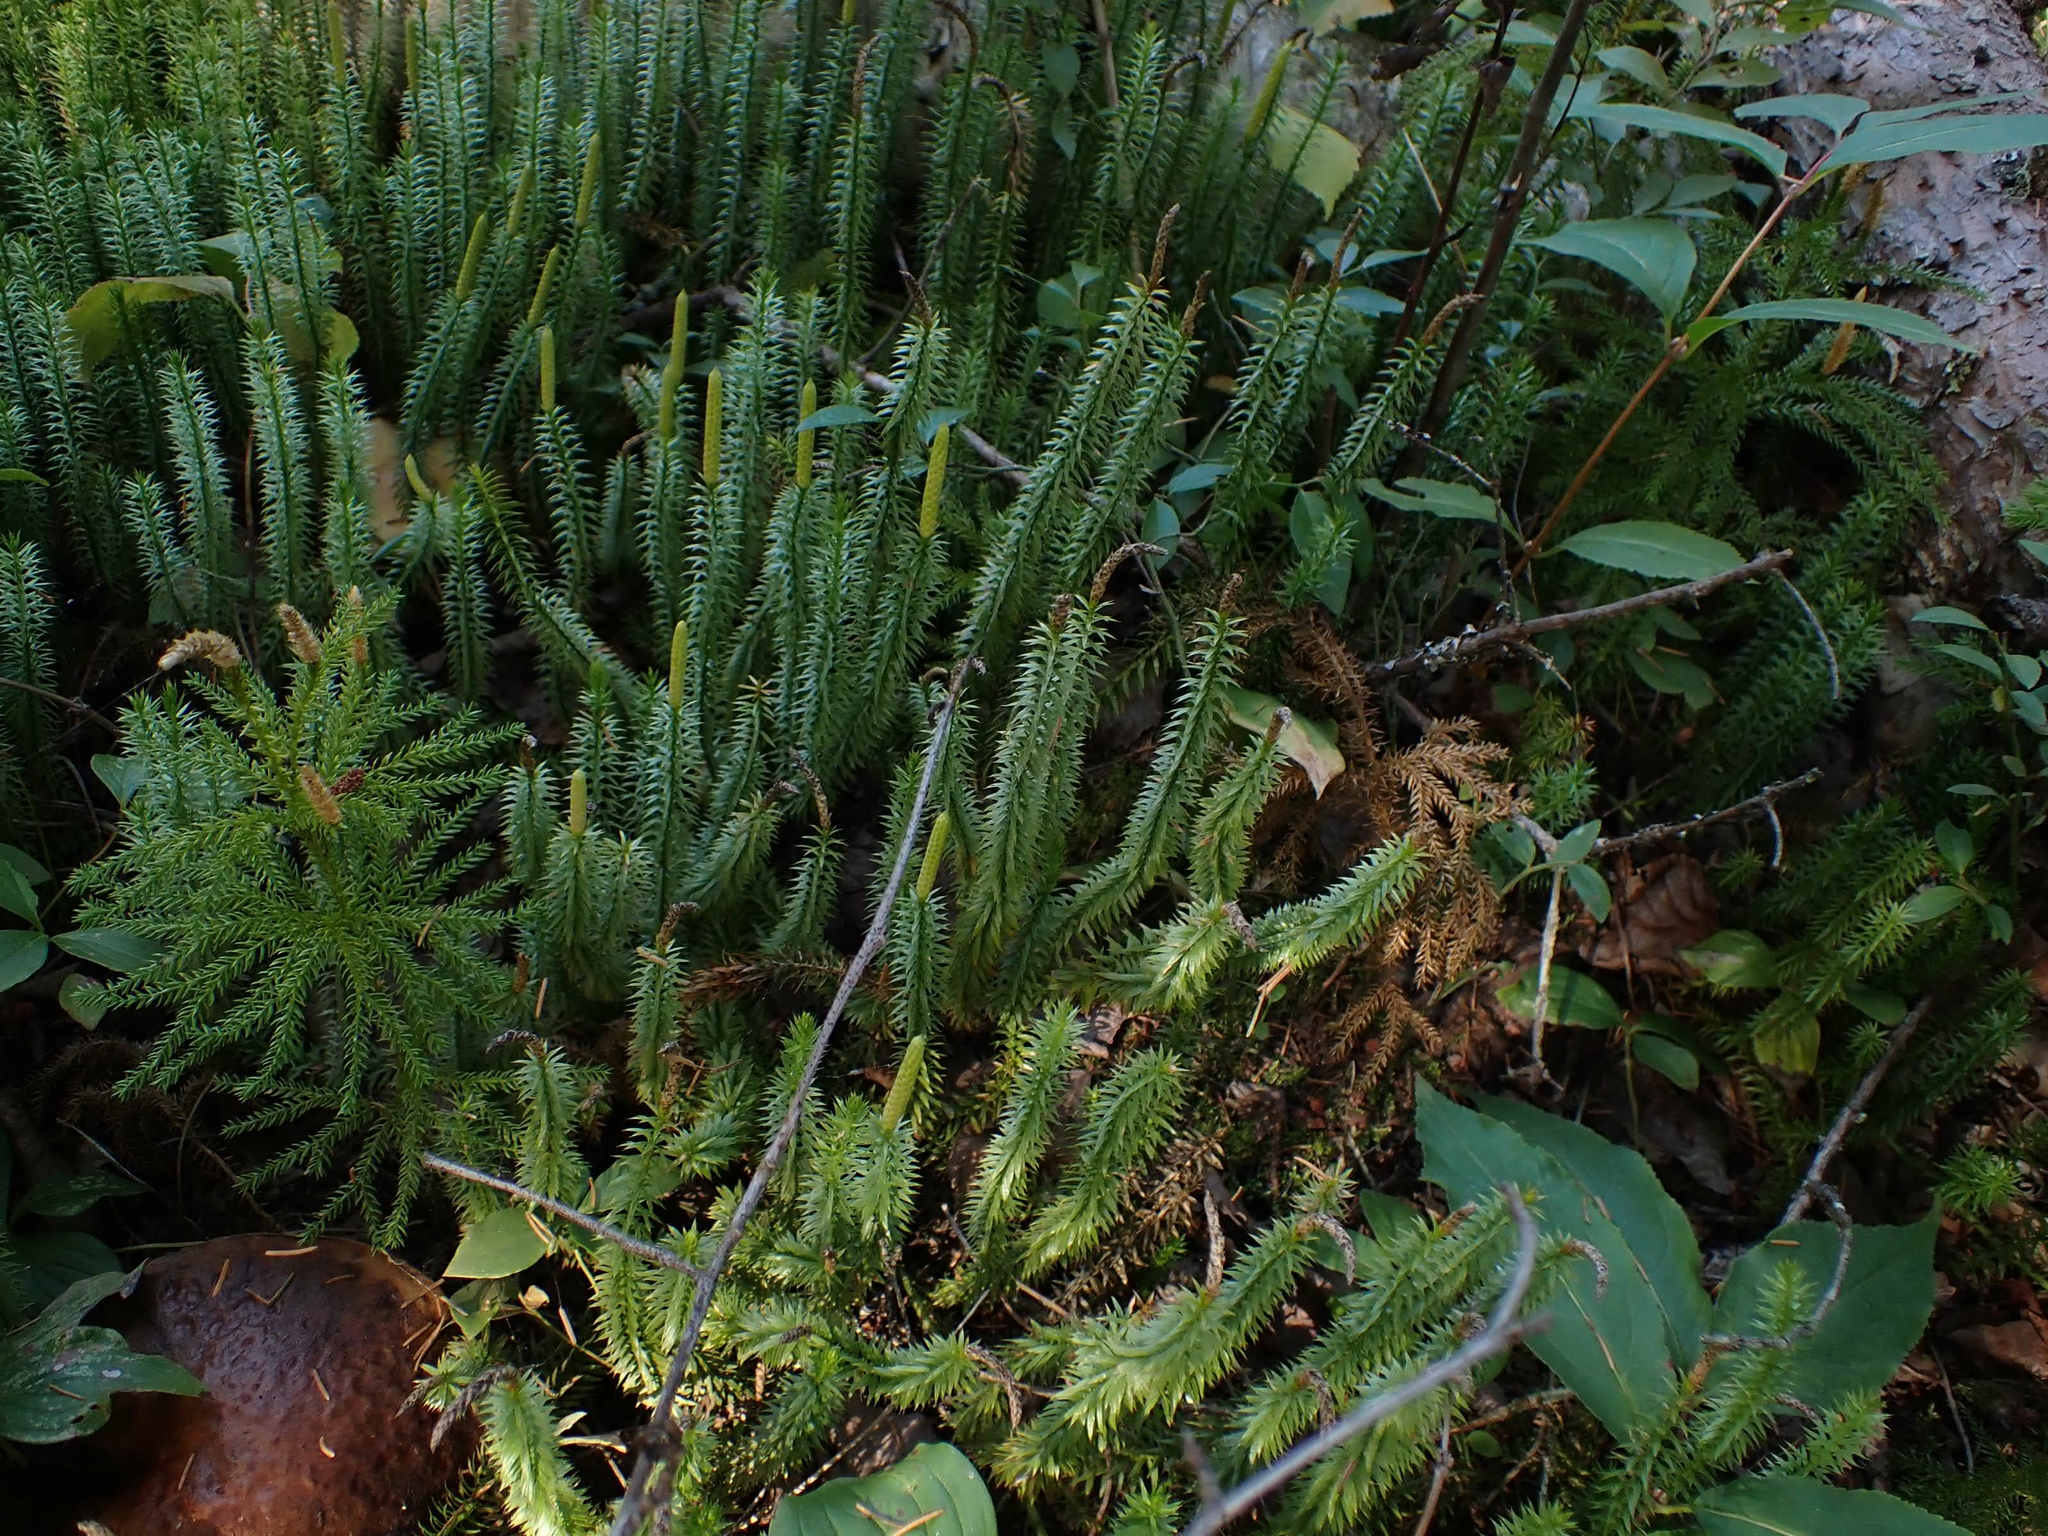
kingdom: Plantae
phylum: Tracheophyta
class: Lycopodiopsida
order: Lycopodiales
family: Lycopodiaceae
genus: Spinulum
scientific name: Spinulum annotinum
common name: Interrupted club-moss
